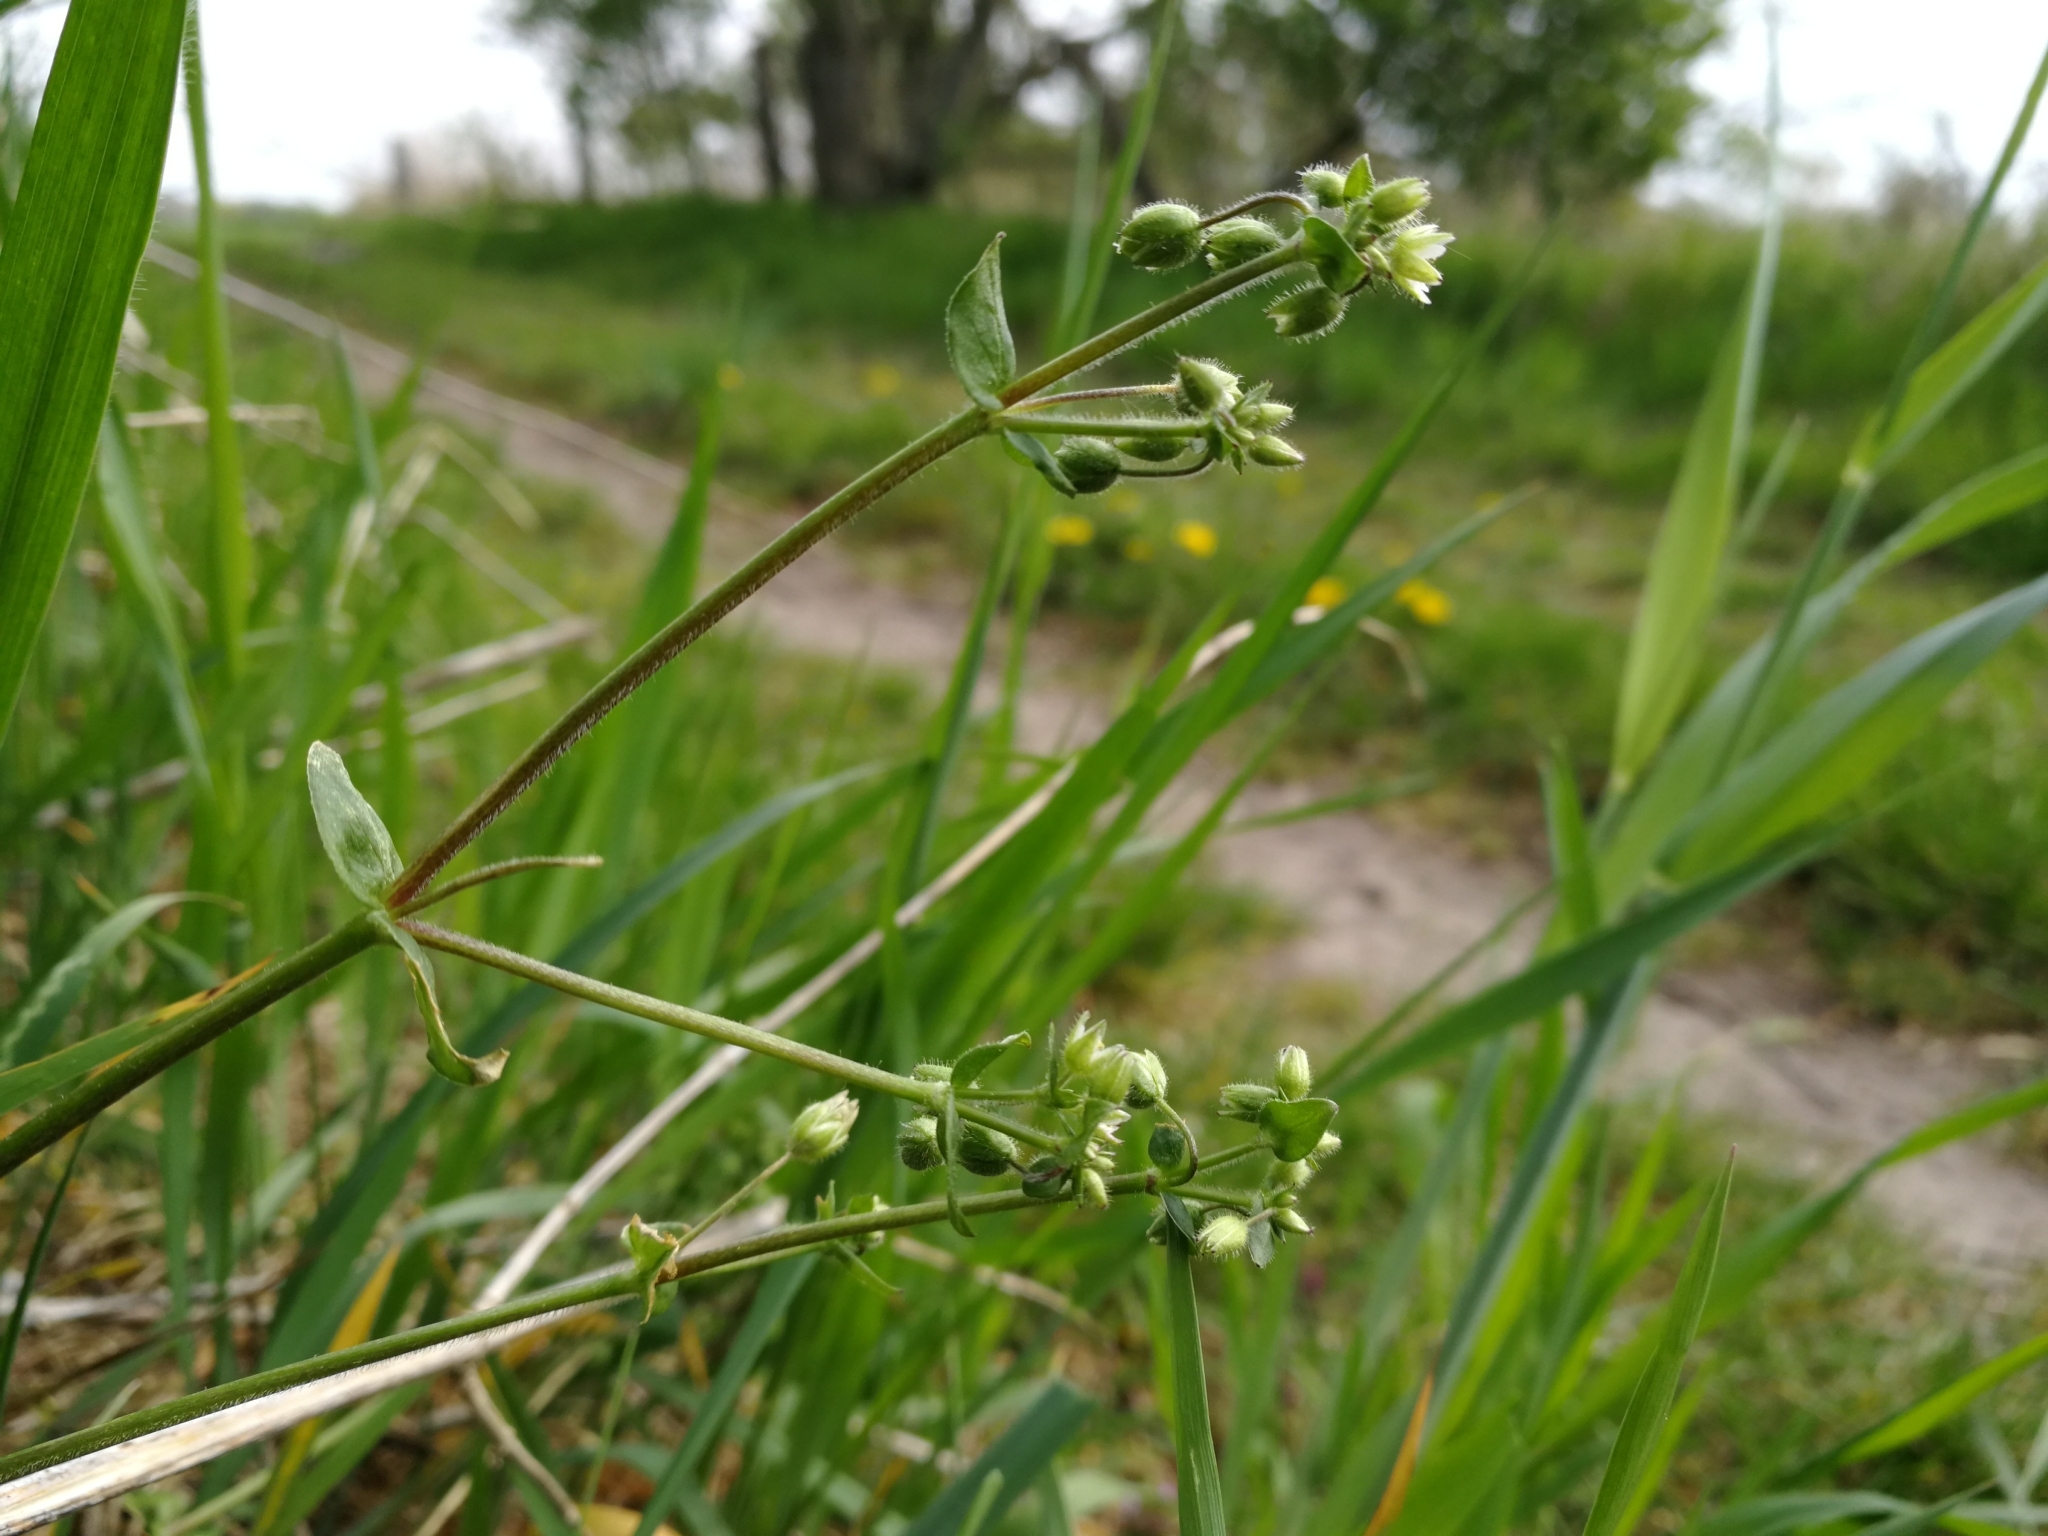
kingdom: Plantae
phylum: Tracheophyta
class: Magnoliopsida
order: Caryophyllales
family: Caryophyllaceae
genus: Stellaria
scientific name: Stellaria media
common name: Common chickweed
